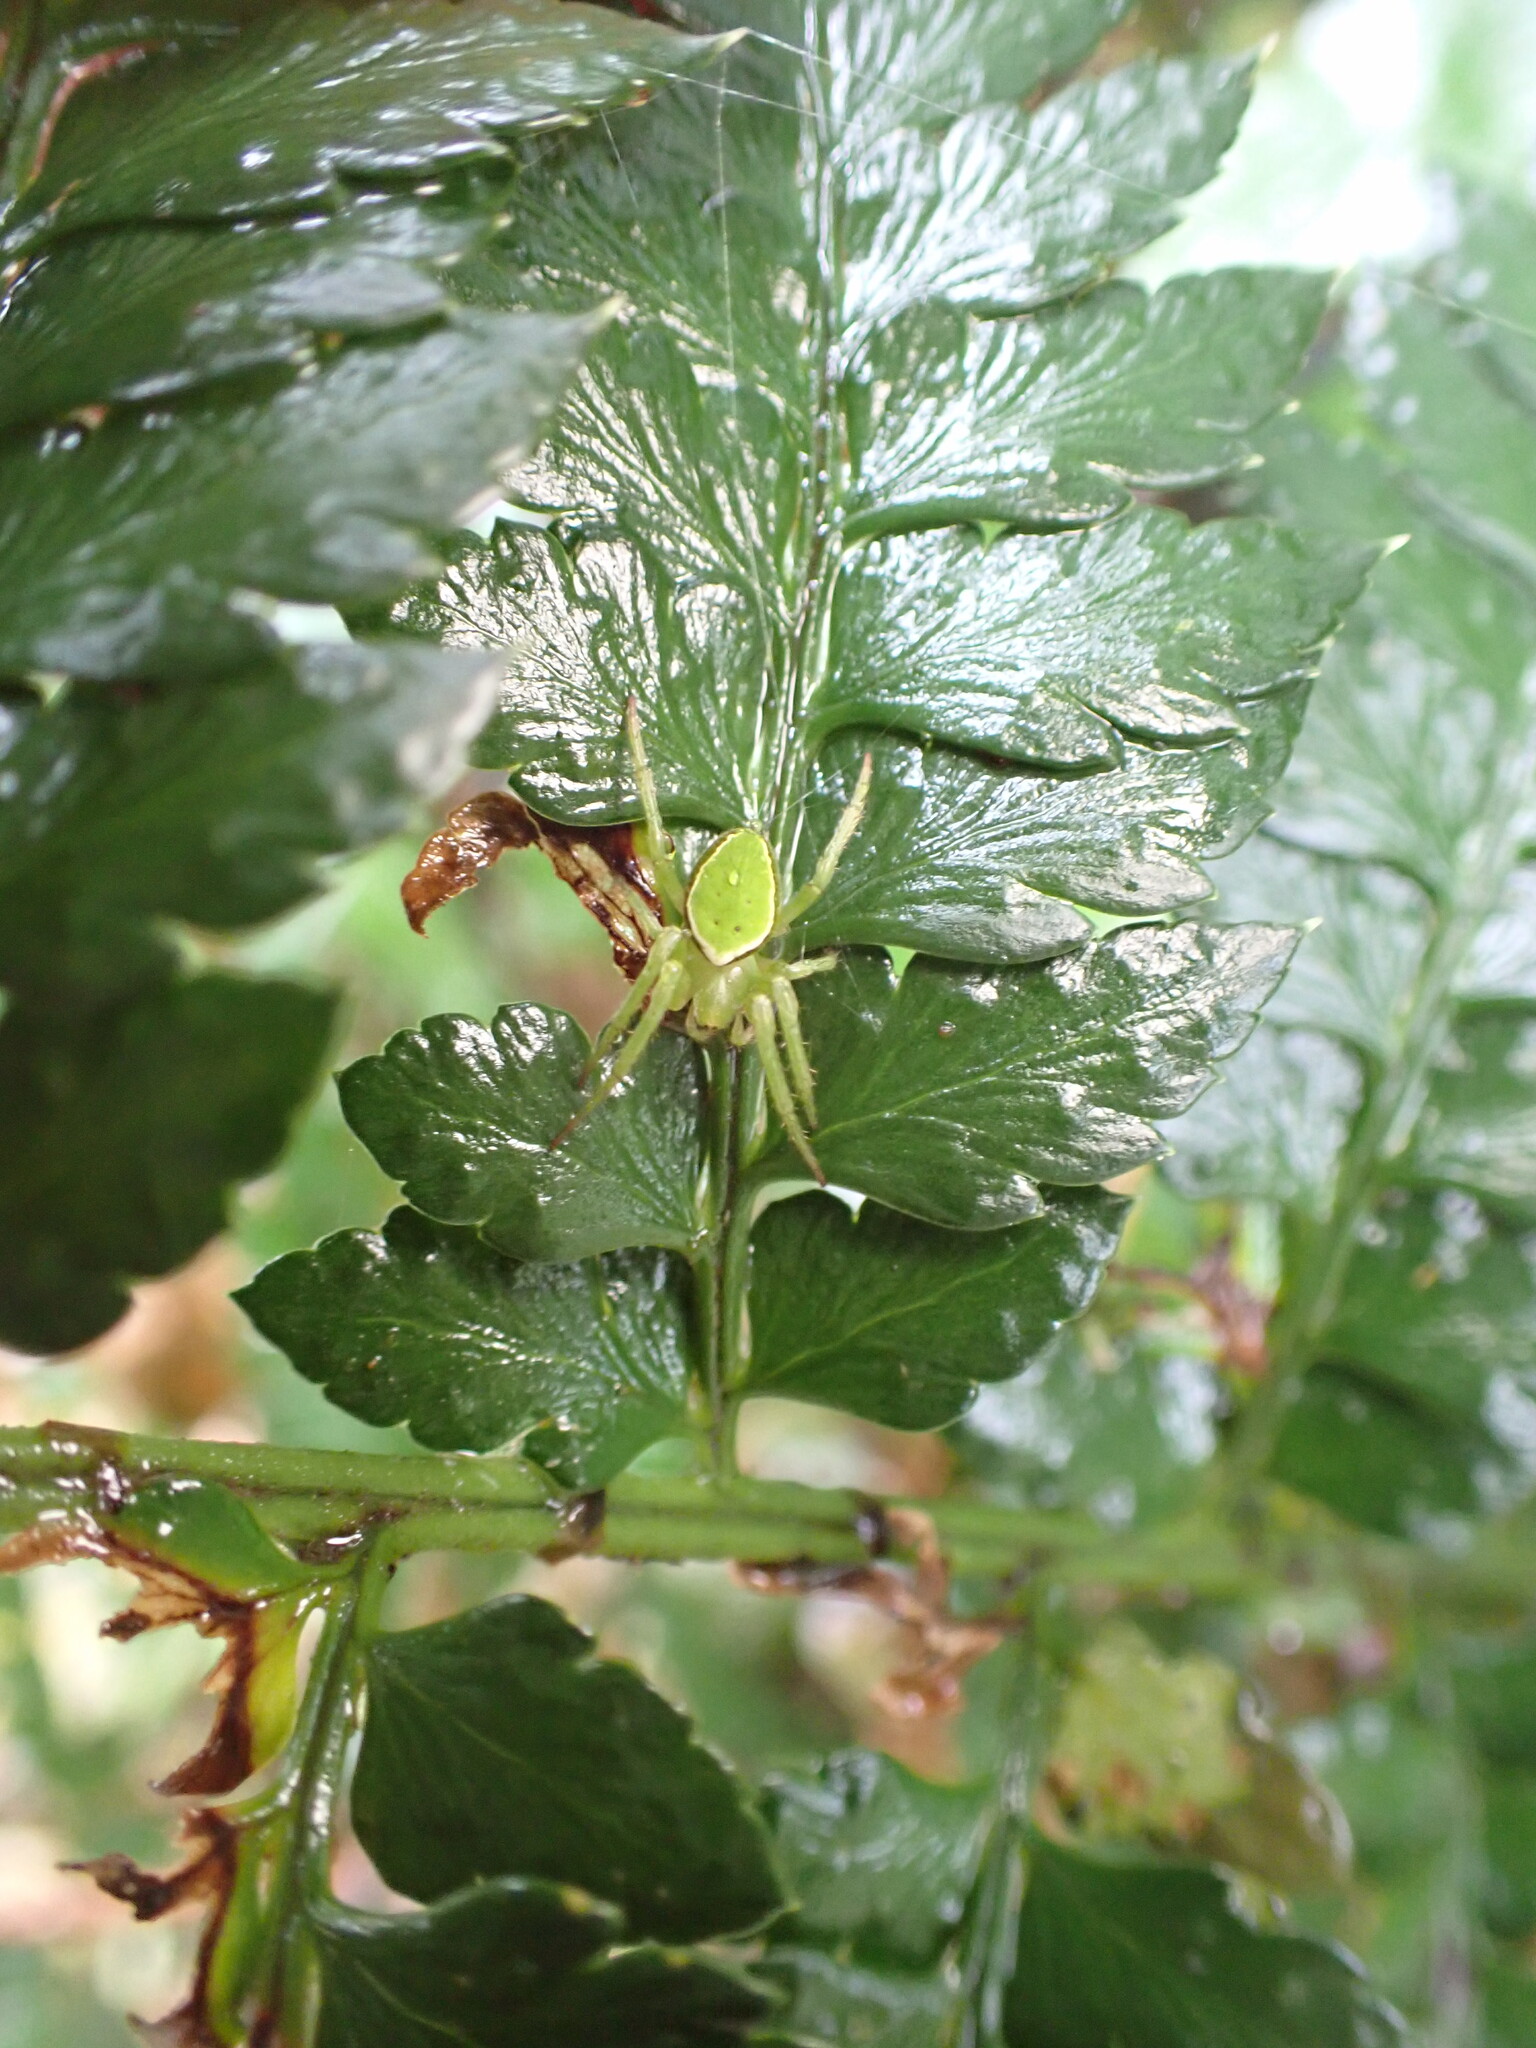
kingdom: Animalia
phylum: Arthropoda
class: Arachnida
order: Araneae
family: Araneidae
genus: Colaranea
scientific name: Colaranea viriditas
